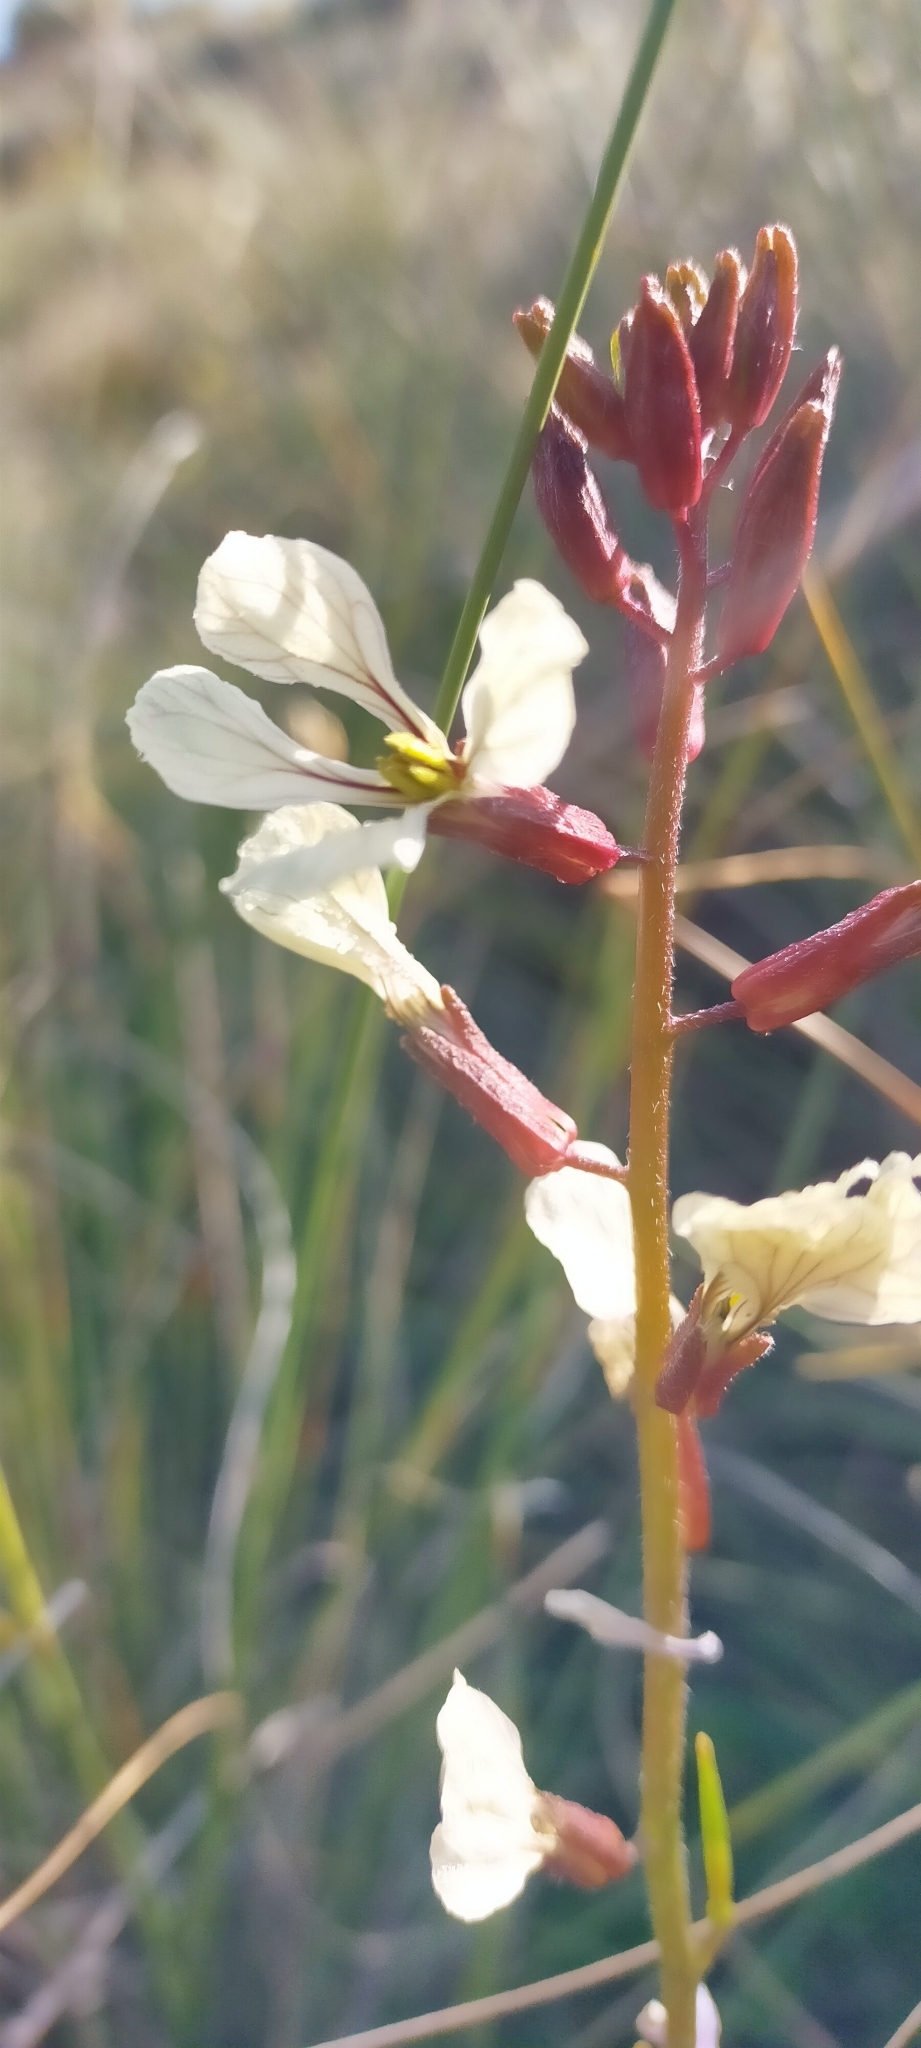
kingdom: Plantae
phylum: Tracheophyta
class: Magnoliopsida
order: Brassicales
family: Brassicaceae
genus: Eruca
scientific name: Eruca vesicaria
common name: Garden rocket
